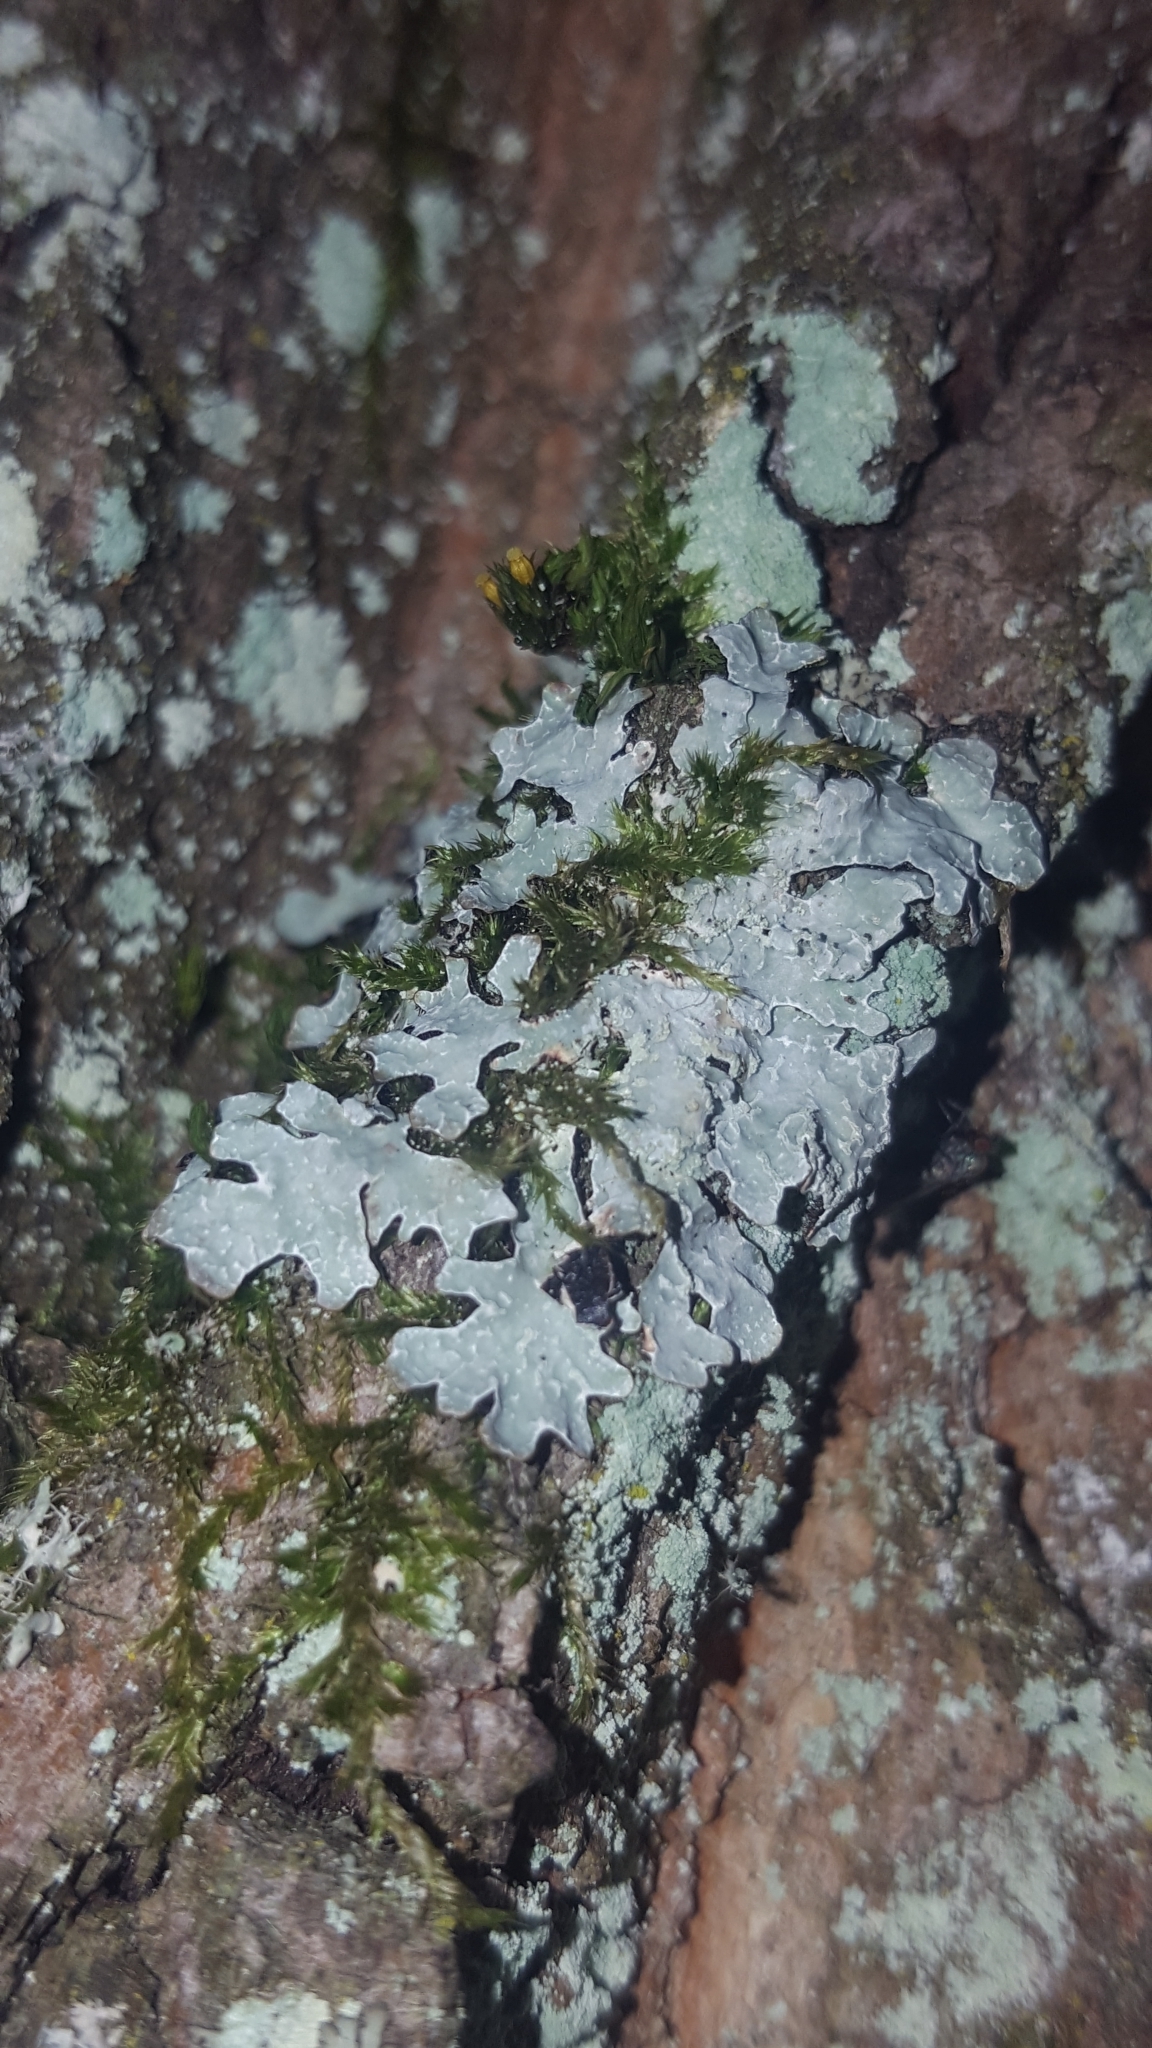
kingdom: Fungi
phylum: Ascomycota
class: Lecanoromycetes
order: Lecanorales
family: Parmeliaceae
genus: Parmelia
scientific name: Parmelia sulcata
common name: Netted shield lichen
